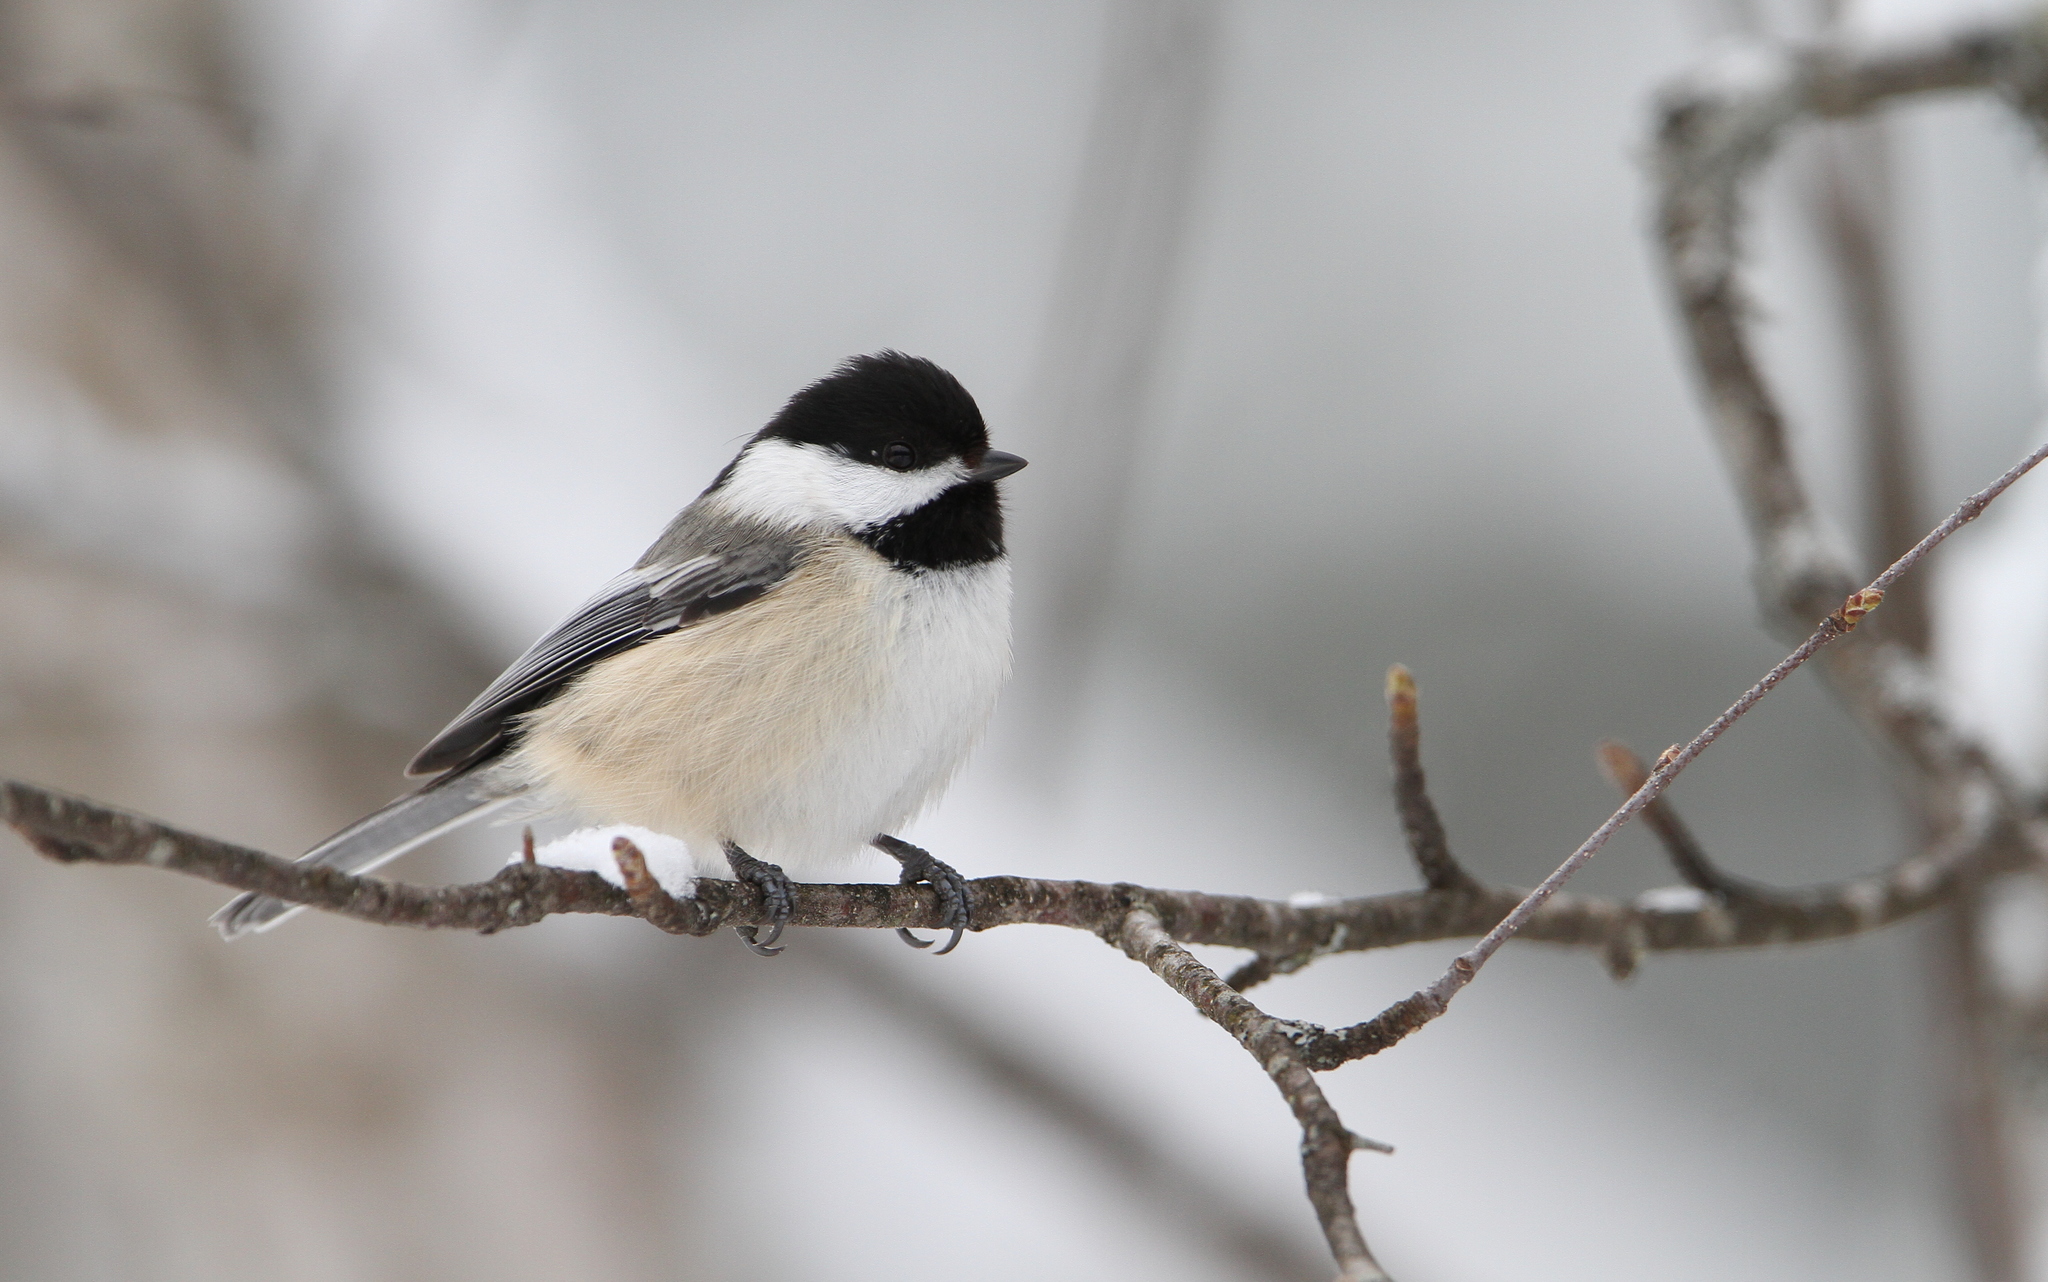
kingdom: Animalia
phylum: Chordata
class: Aves
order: Passeriformes
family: Paridae
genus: Poecile
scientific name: Poecile atricapillus
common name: Black-capped chickadee
